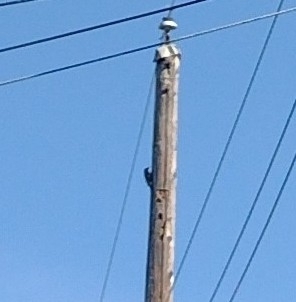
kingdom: Animalia
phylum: Chordata
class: Aves
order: Piciformes
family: Picidae
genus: Colaptes
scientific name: Colaptes auratus
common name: Northern flicker
